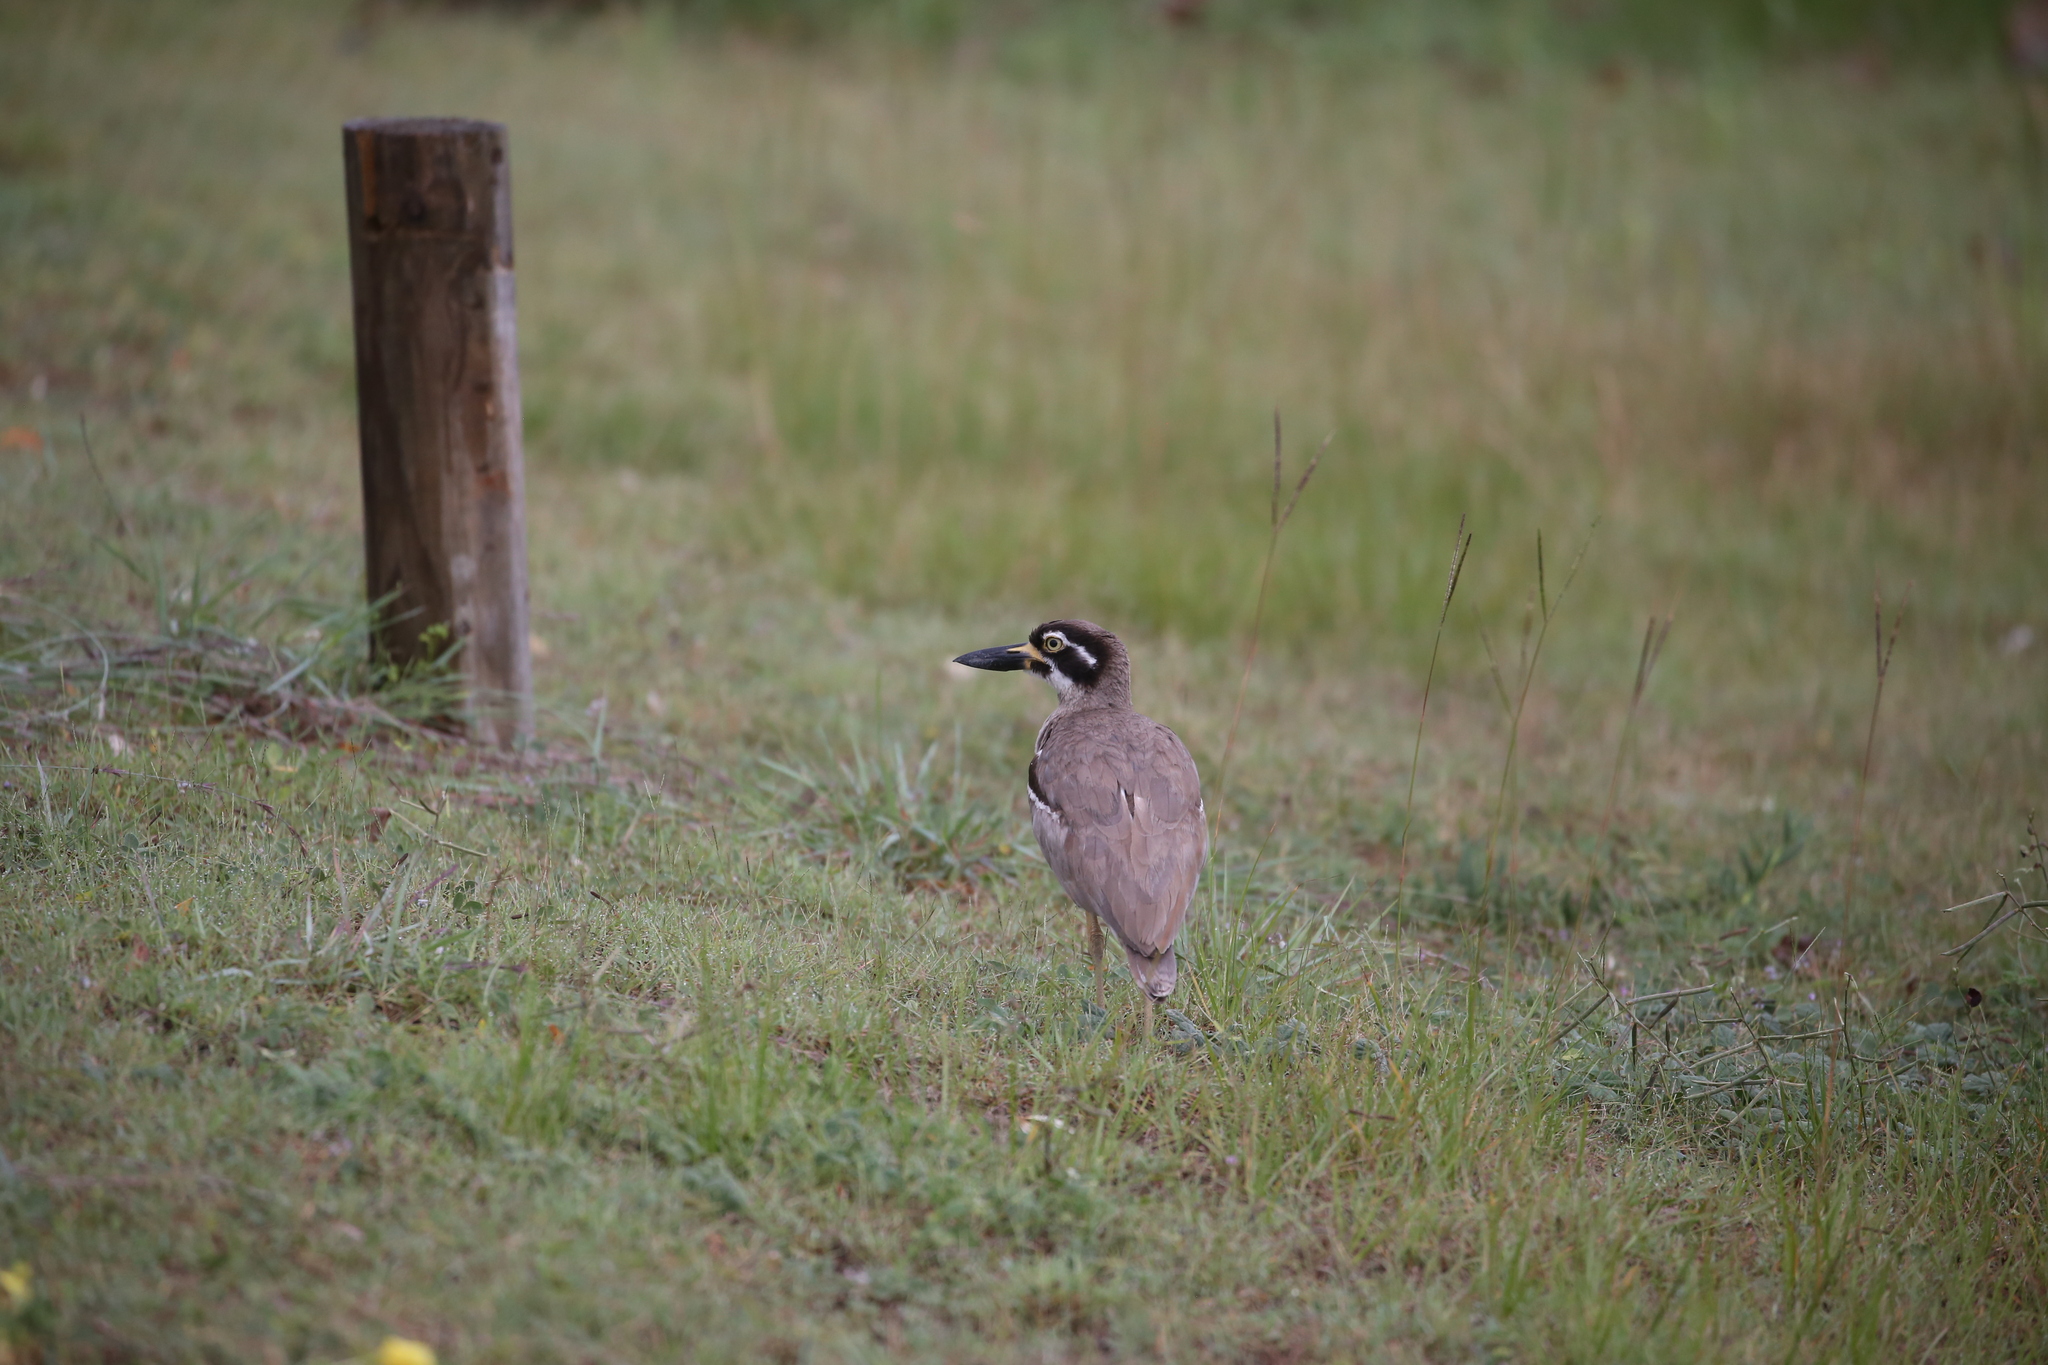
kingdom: Animalia
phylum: Chordata
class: Aves
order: Charadriiformes
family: Burhinidae
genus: Esacus
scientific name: Esacus magnirostris
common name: Beach stone-curlew
